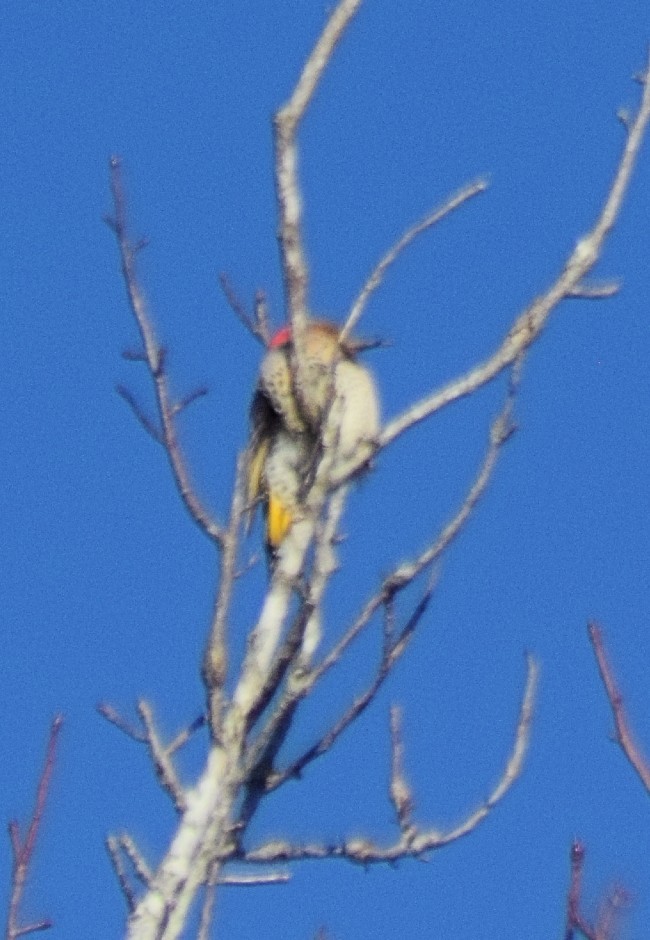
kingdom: Animalia
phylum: Chordata
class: Aves
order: Piciformes
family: Picidae
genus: Colaptes
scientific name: Colaptes auratus
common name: Northern flicker
